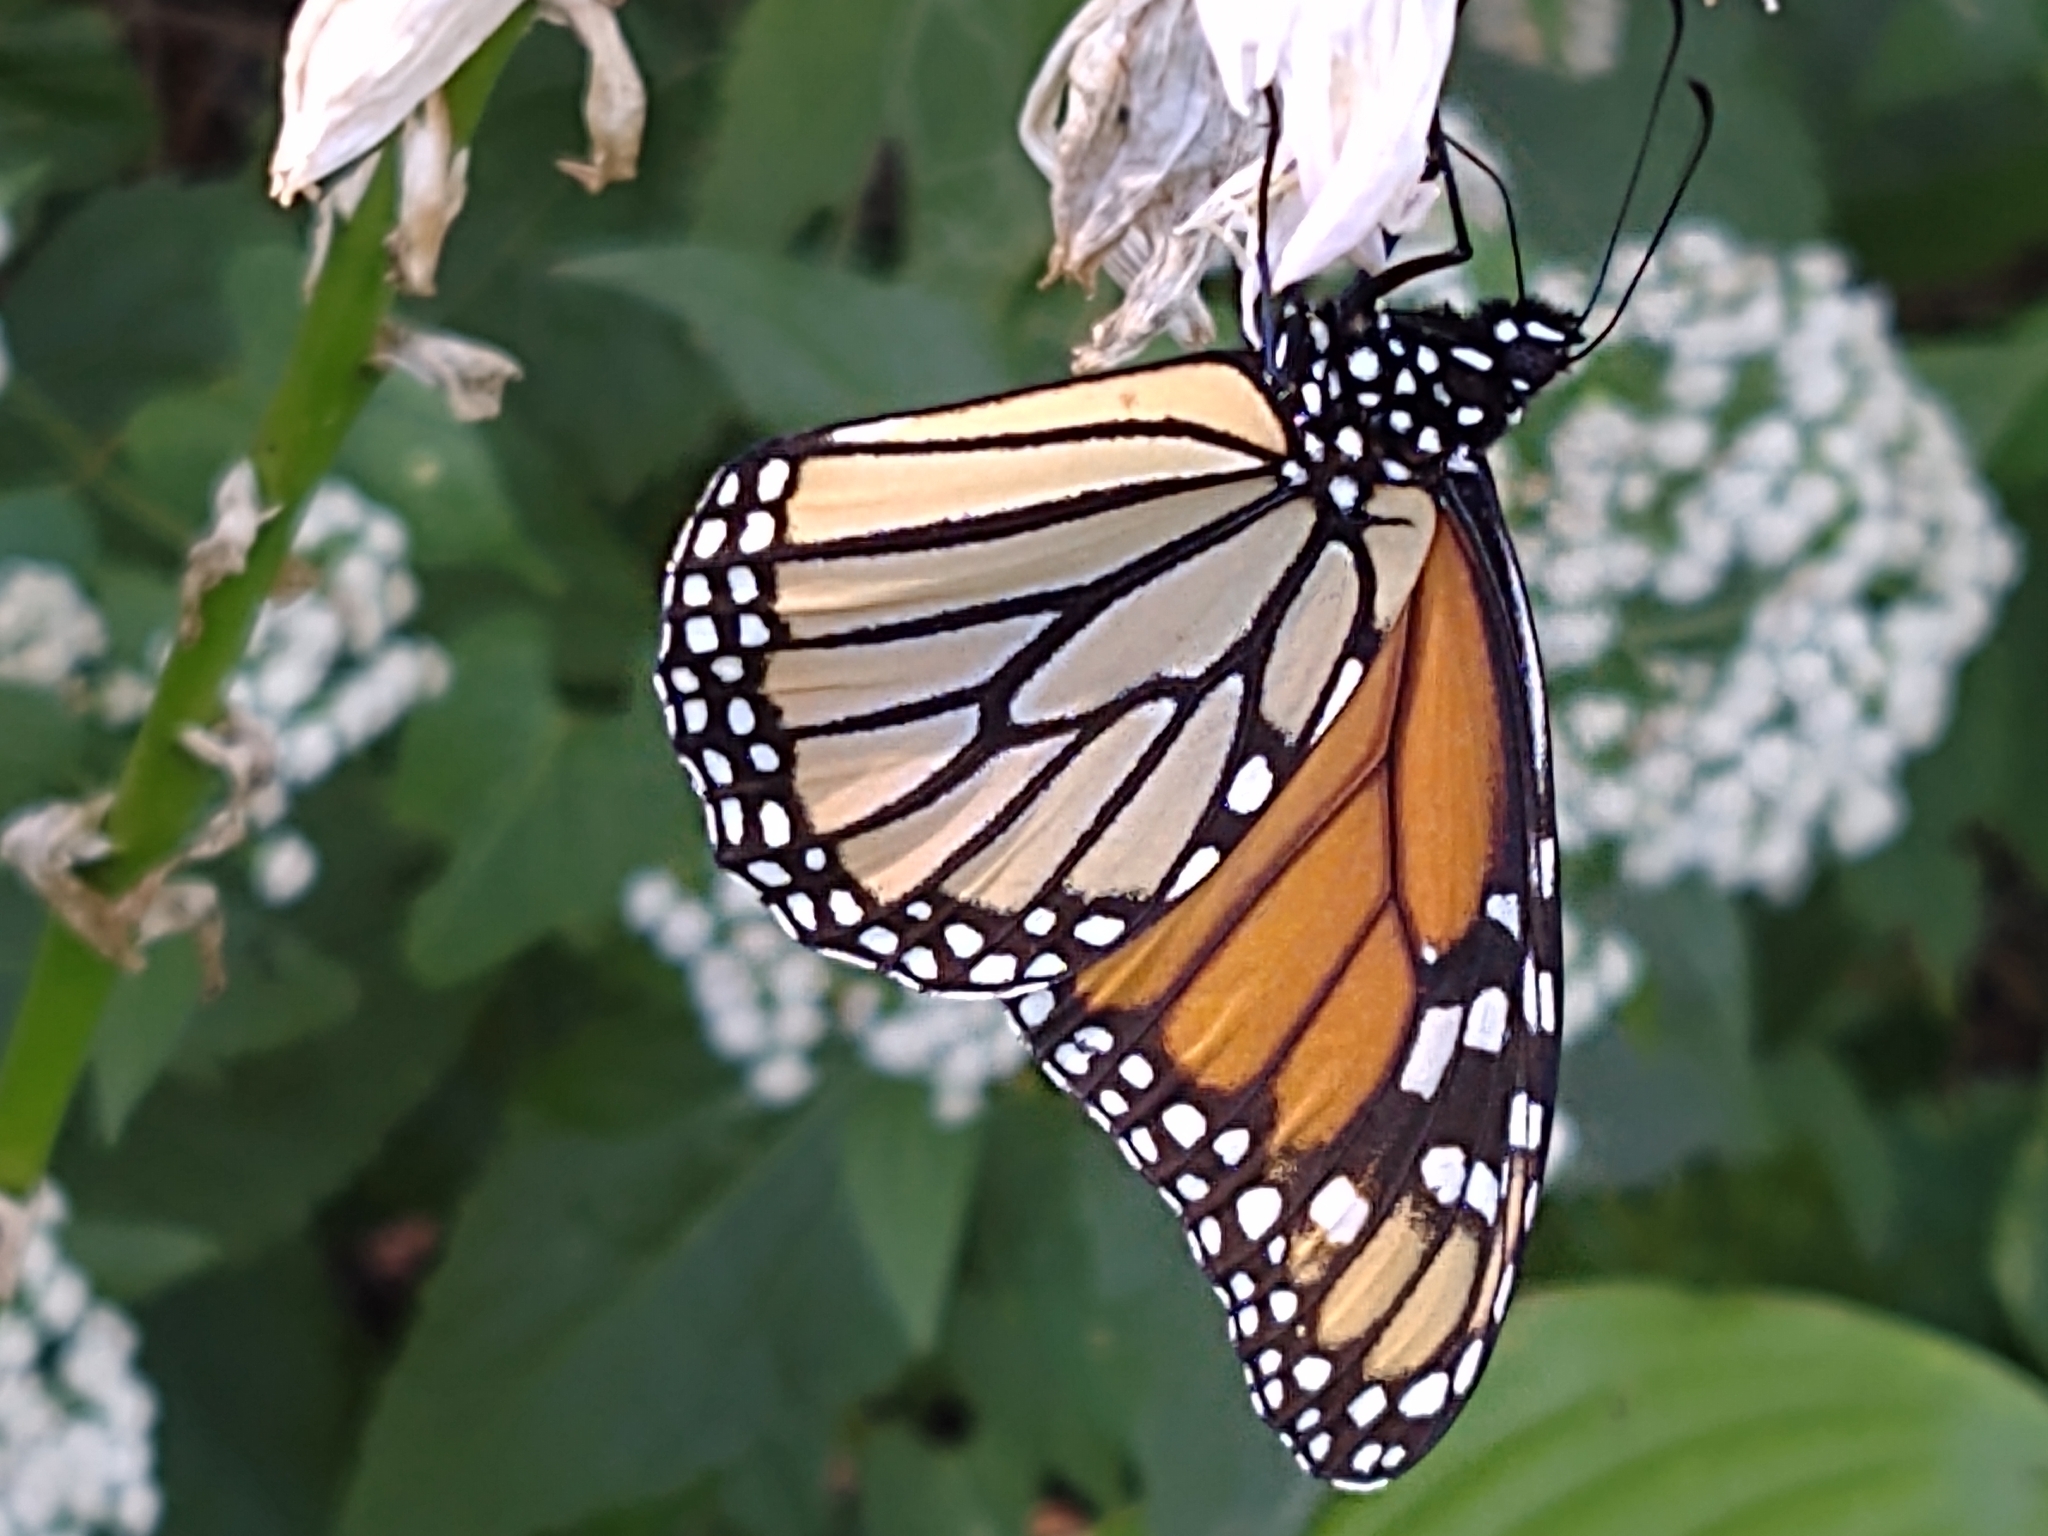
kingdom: Animalia
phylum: Arthropoda
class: Insecta
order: Lepidoptera
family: Nymphalidae
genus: Danaus
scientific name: Danaus plexippus
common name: Monarch
